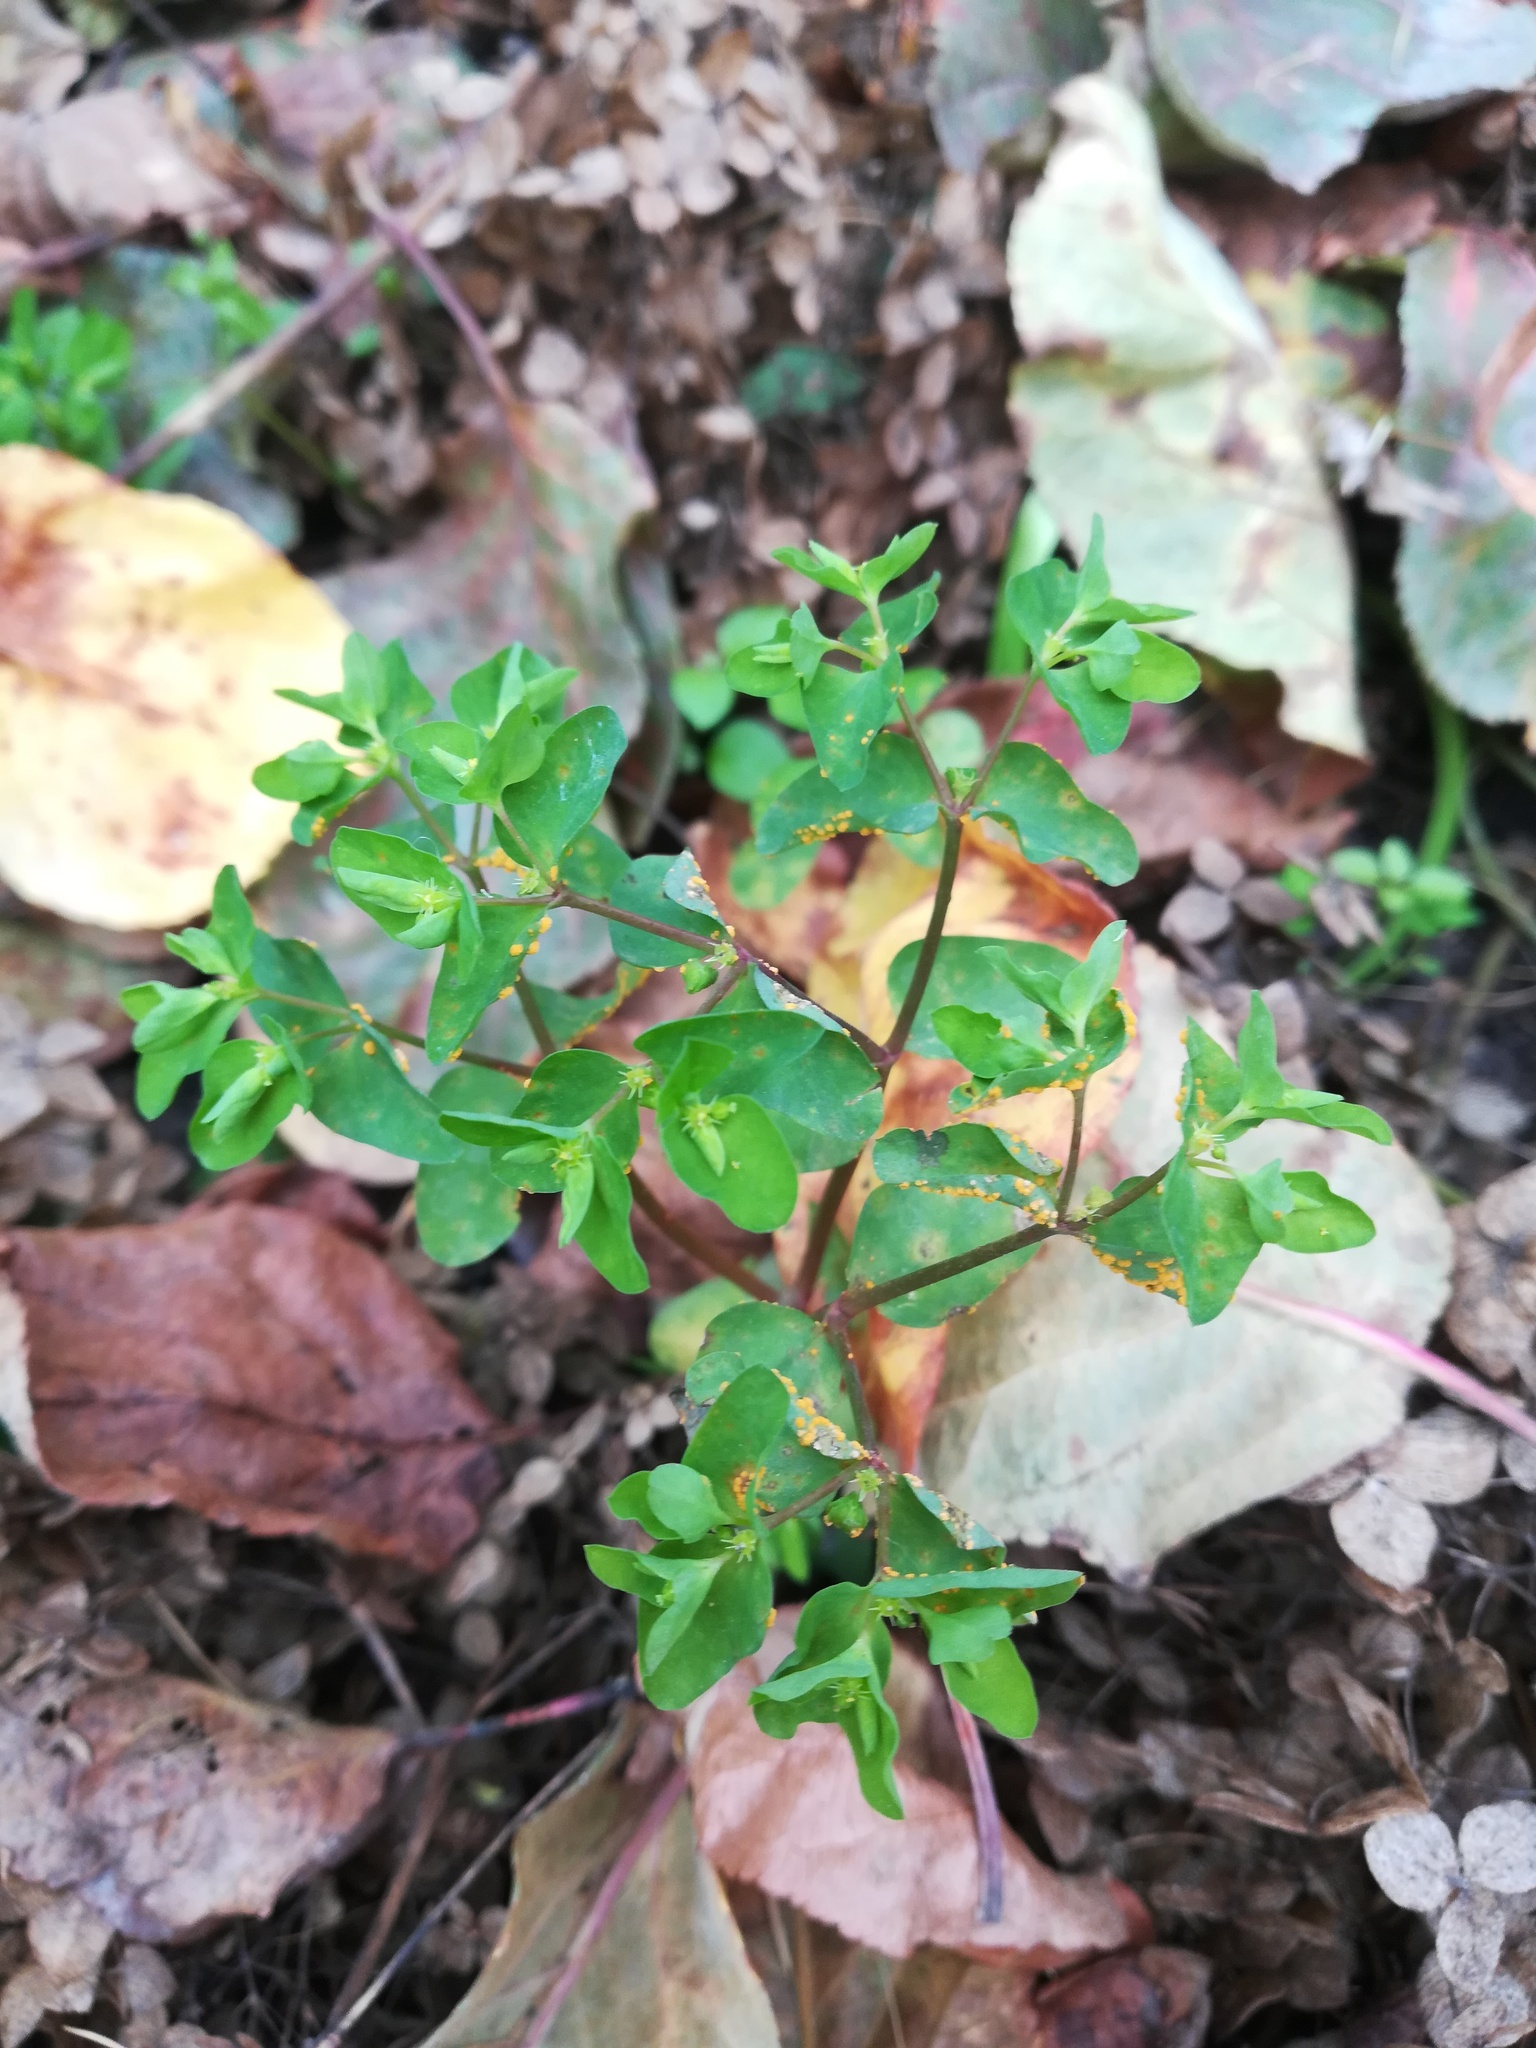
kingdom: Plantae
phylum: Tracheophyta
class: Magnoliopsida
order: Malpighiales
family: Euphorbiaceae
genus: Euphorbia
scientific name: Euphorbia peplus
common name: Petty spurge
